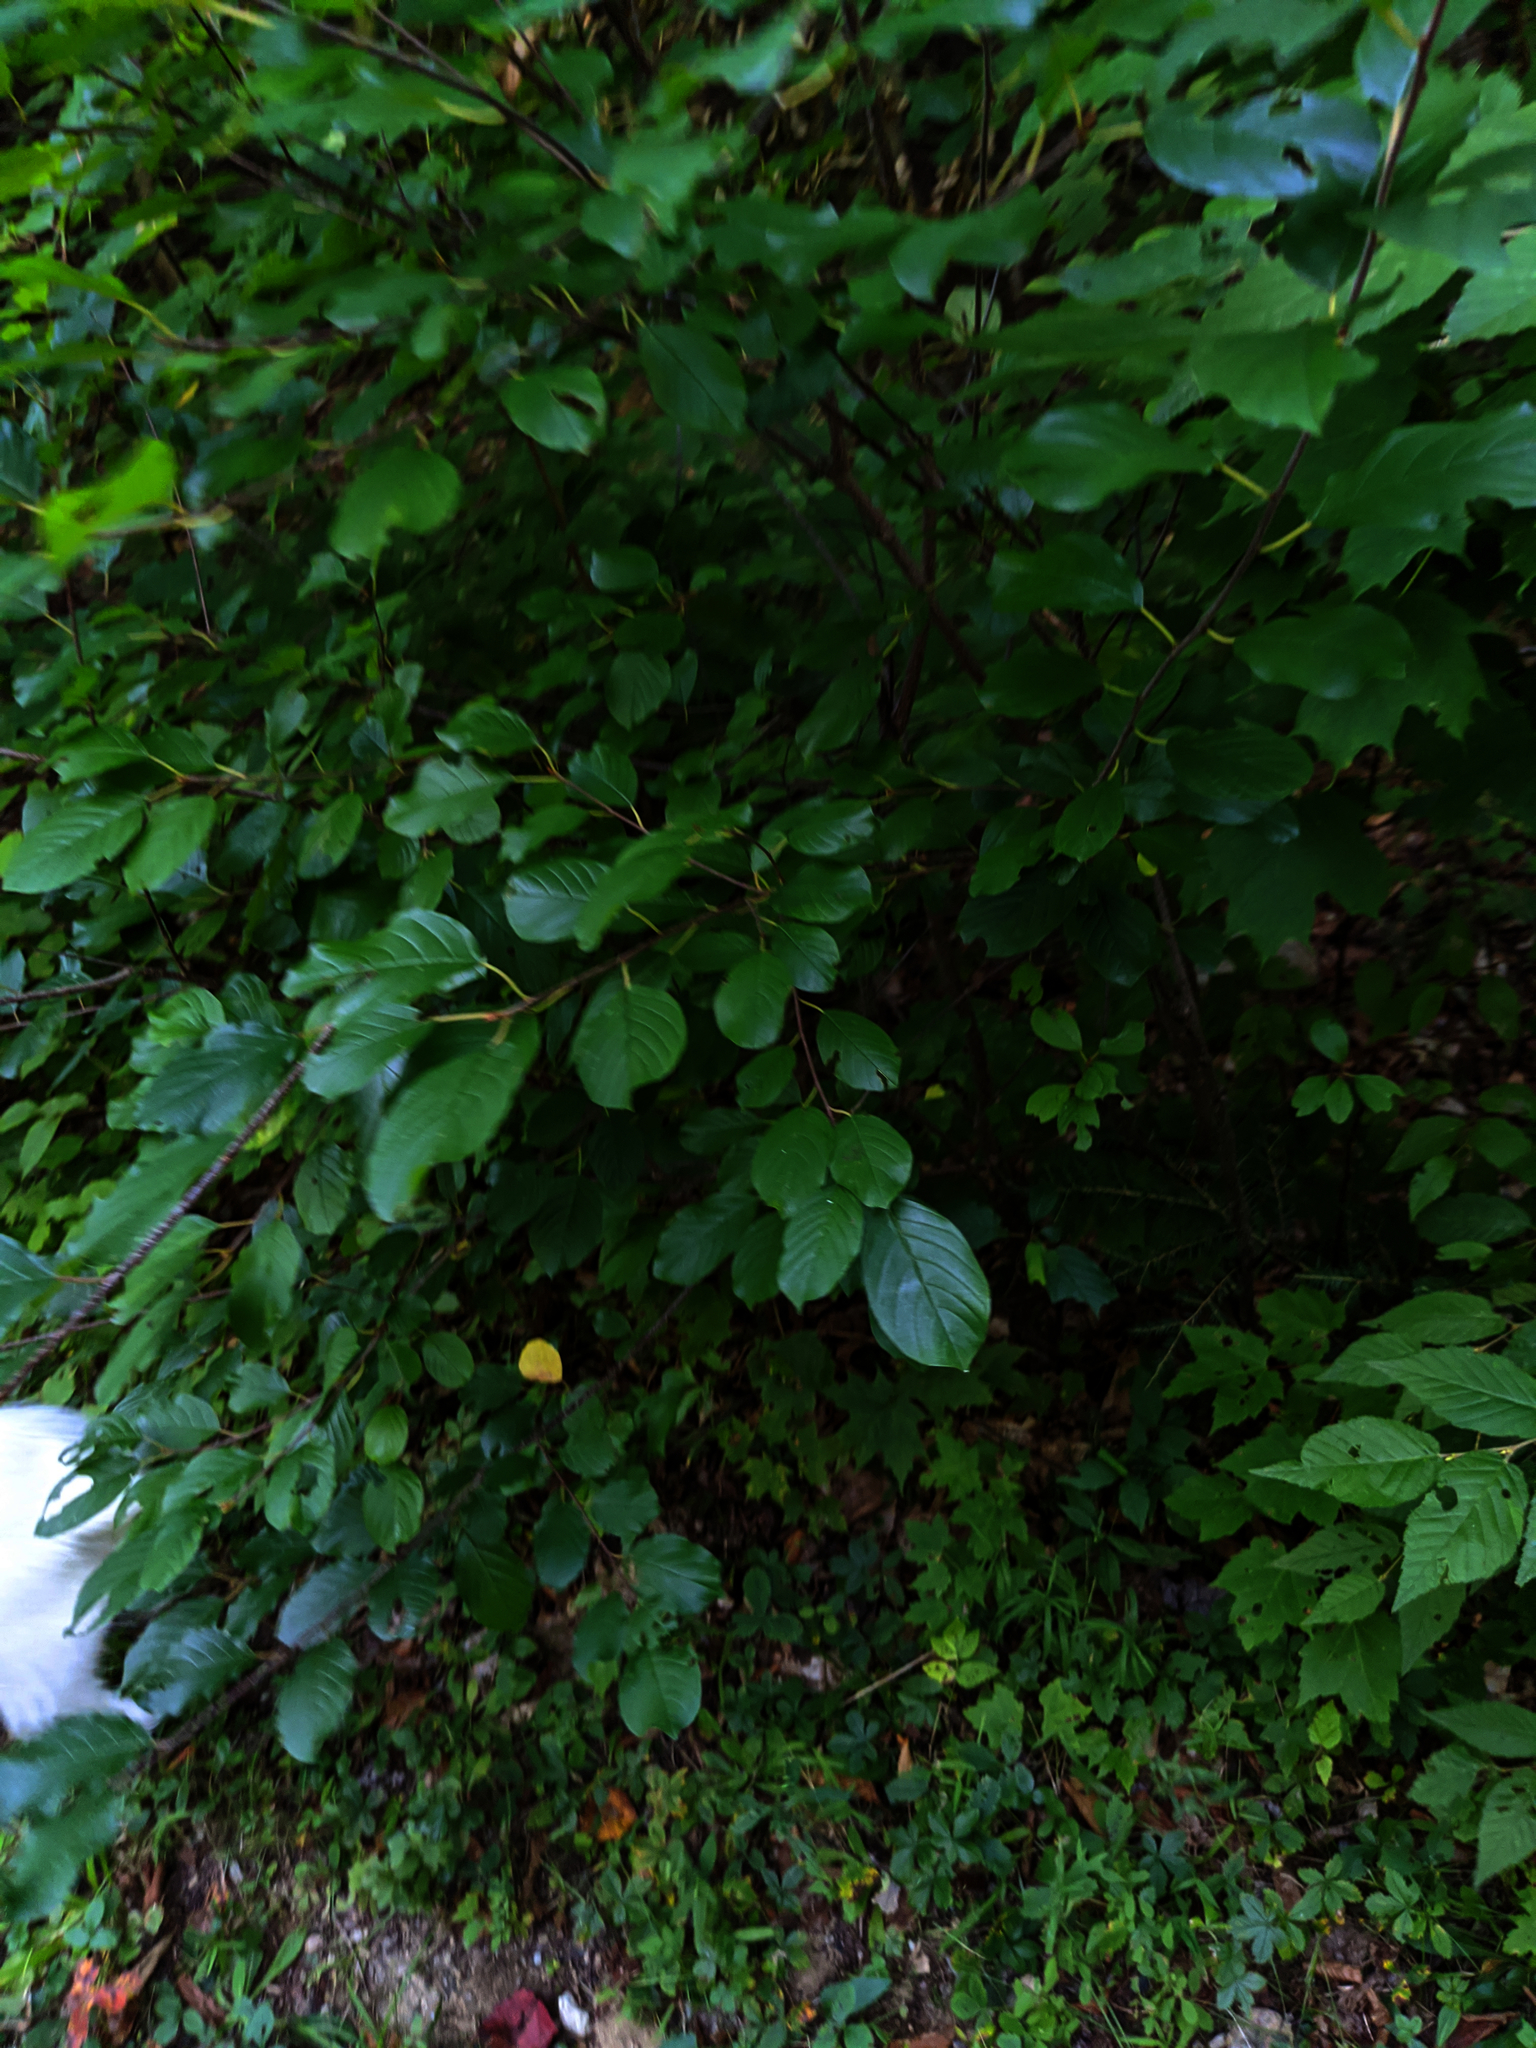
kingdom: Plantae
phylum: Tracheophyta
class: Magnoliopsida
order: Rosales
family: Rhamnaceae
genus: Frangula
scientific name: Frangula alnus
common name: Alder buckthorn
